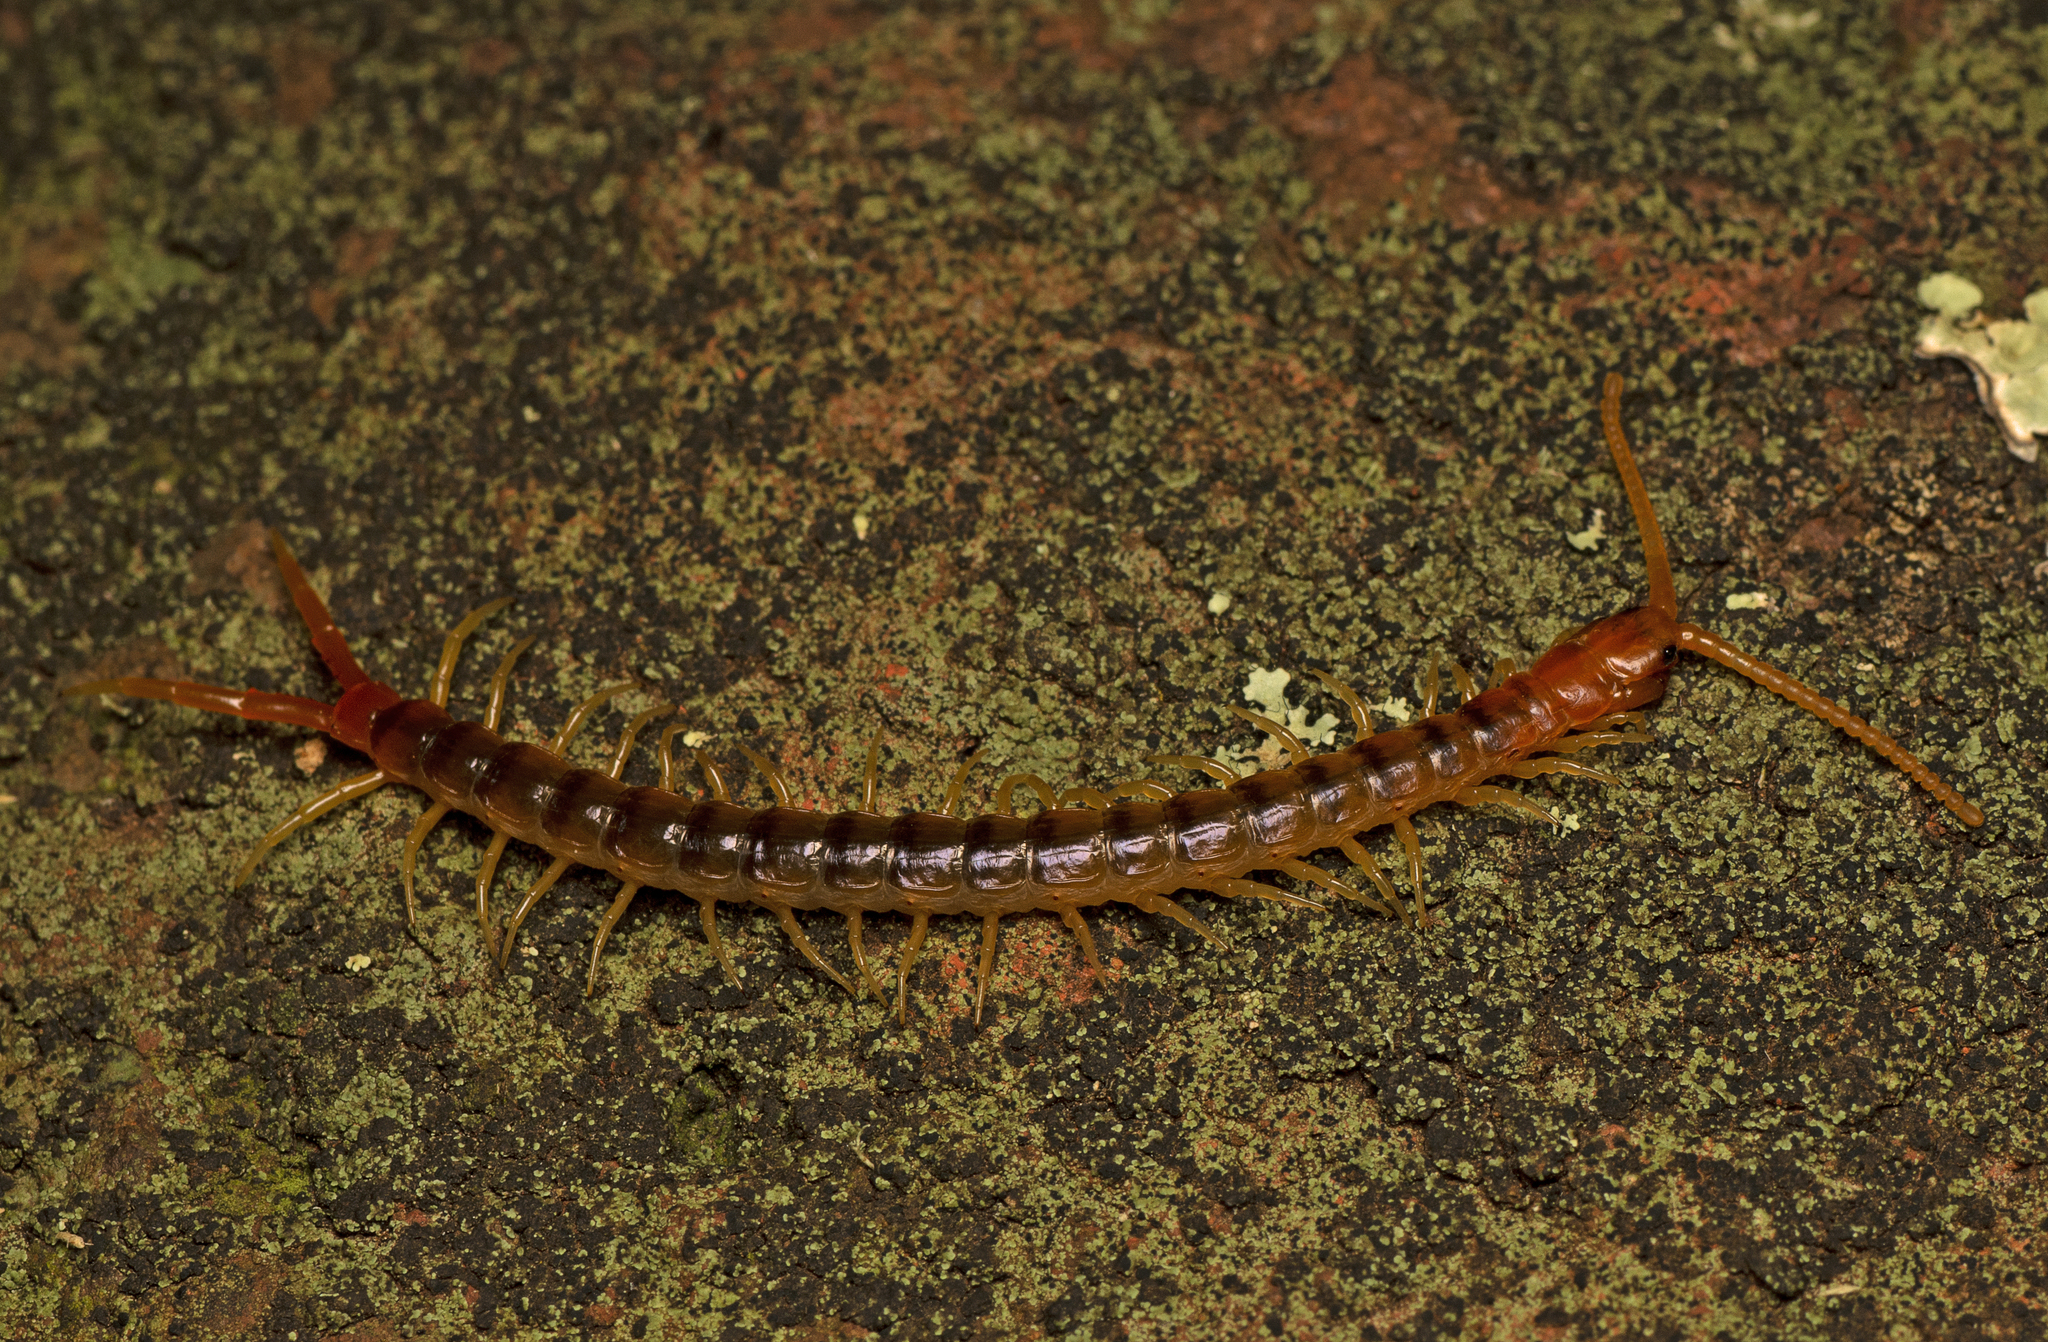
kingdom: Animalia
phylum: Arthropoda
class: Chilopoda
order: Scolopendromorpha
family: Scolopendridae
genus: Ethmostigmus
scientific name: Ethmostigmus rubripes
